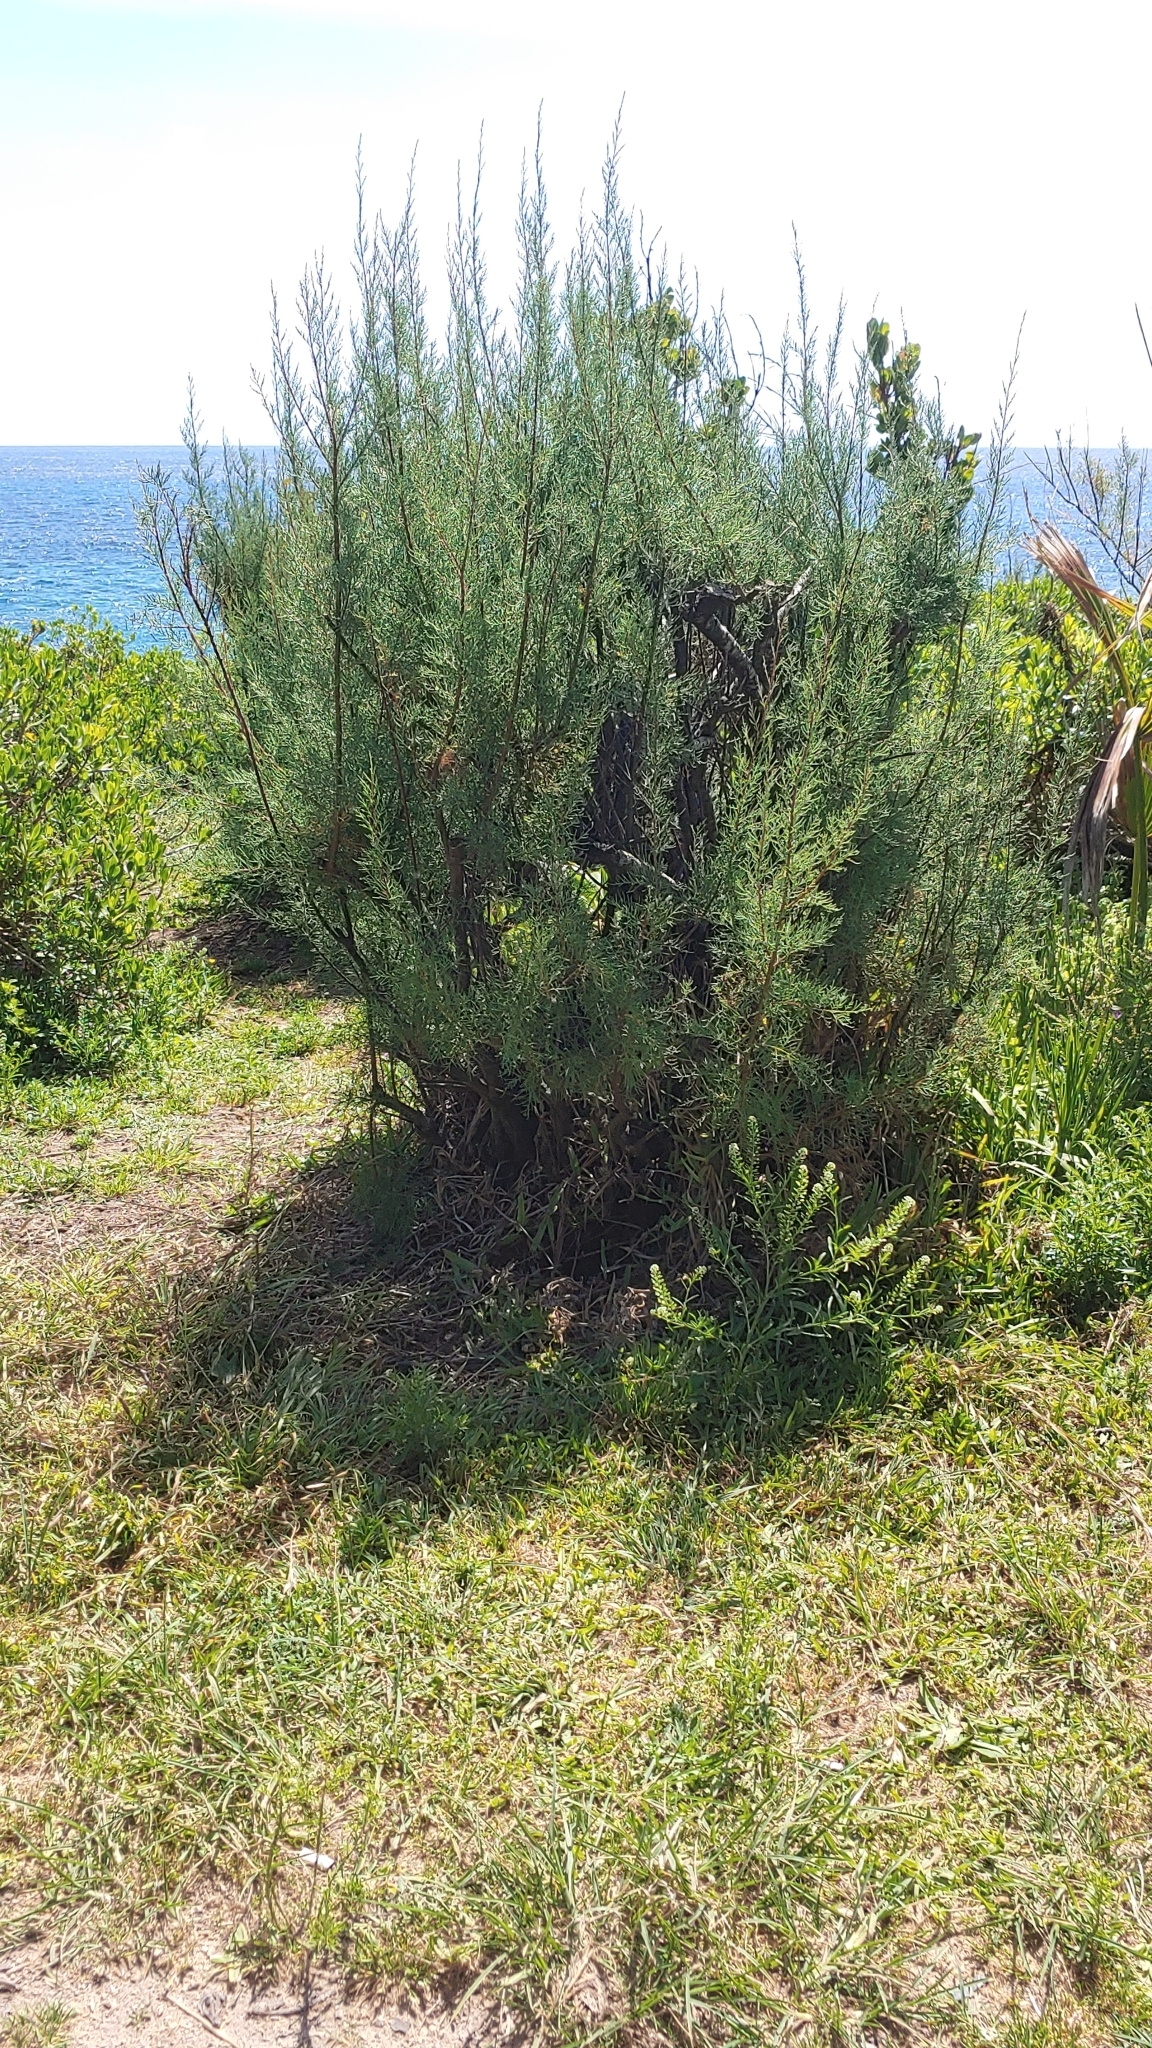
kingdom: Plantae
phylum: Tracheophyta
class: Magnoliopsida
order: Caryophyllales
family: Tamaricaceae
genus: Tamarix
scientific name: Tamarix gallica
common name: Tamarisk
